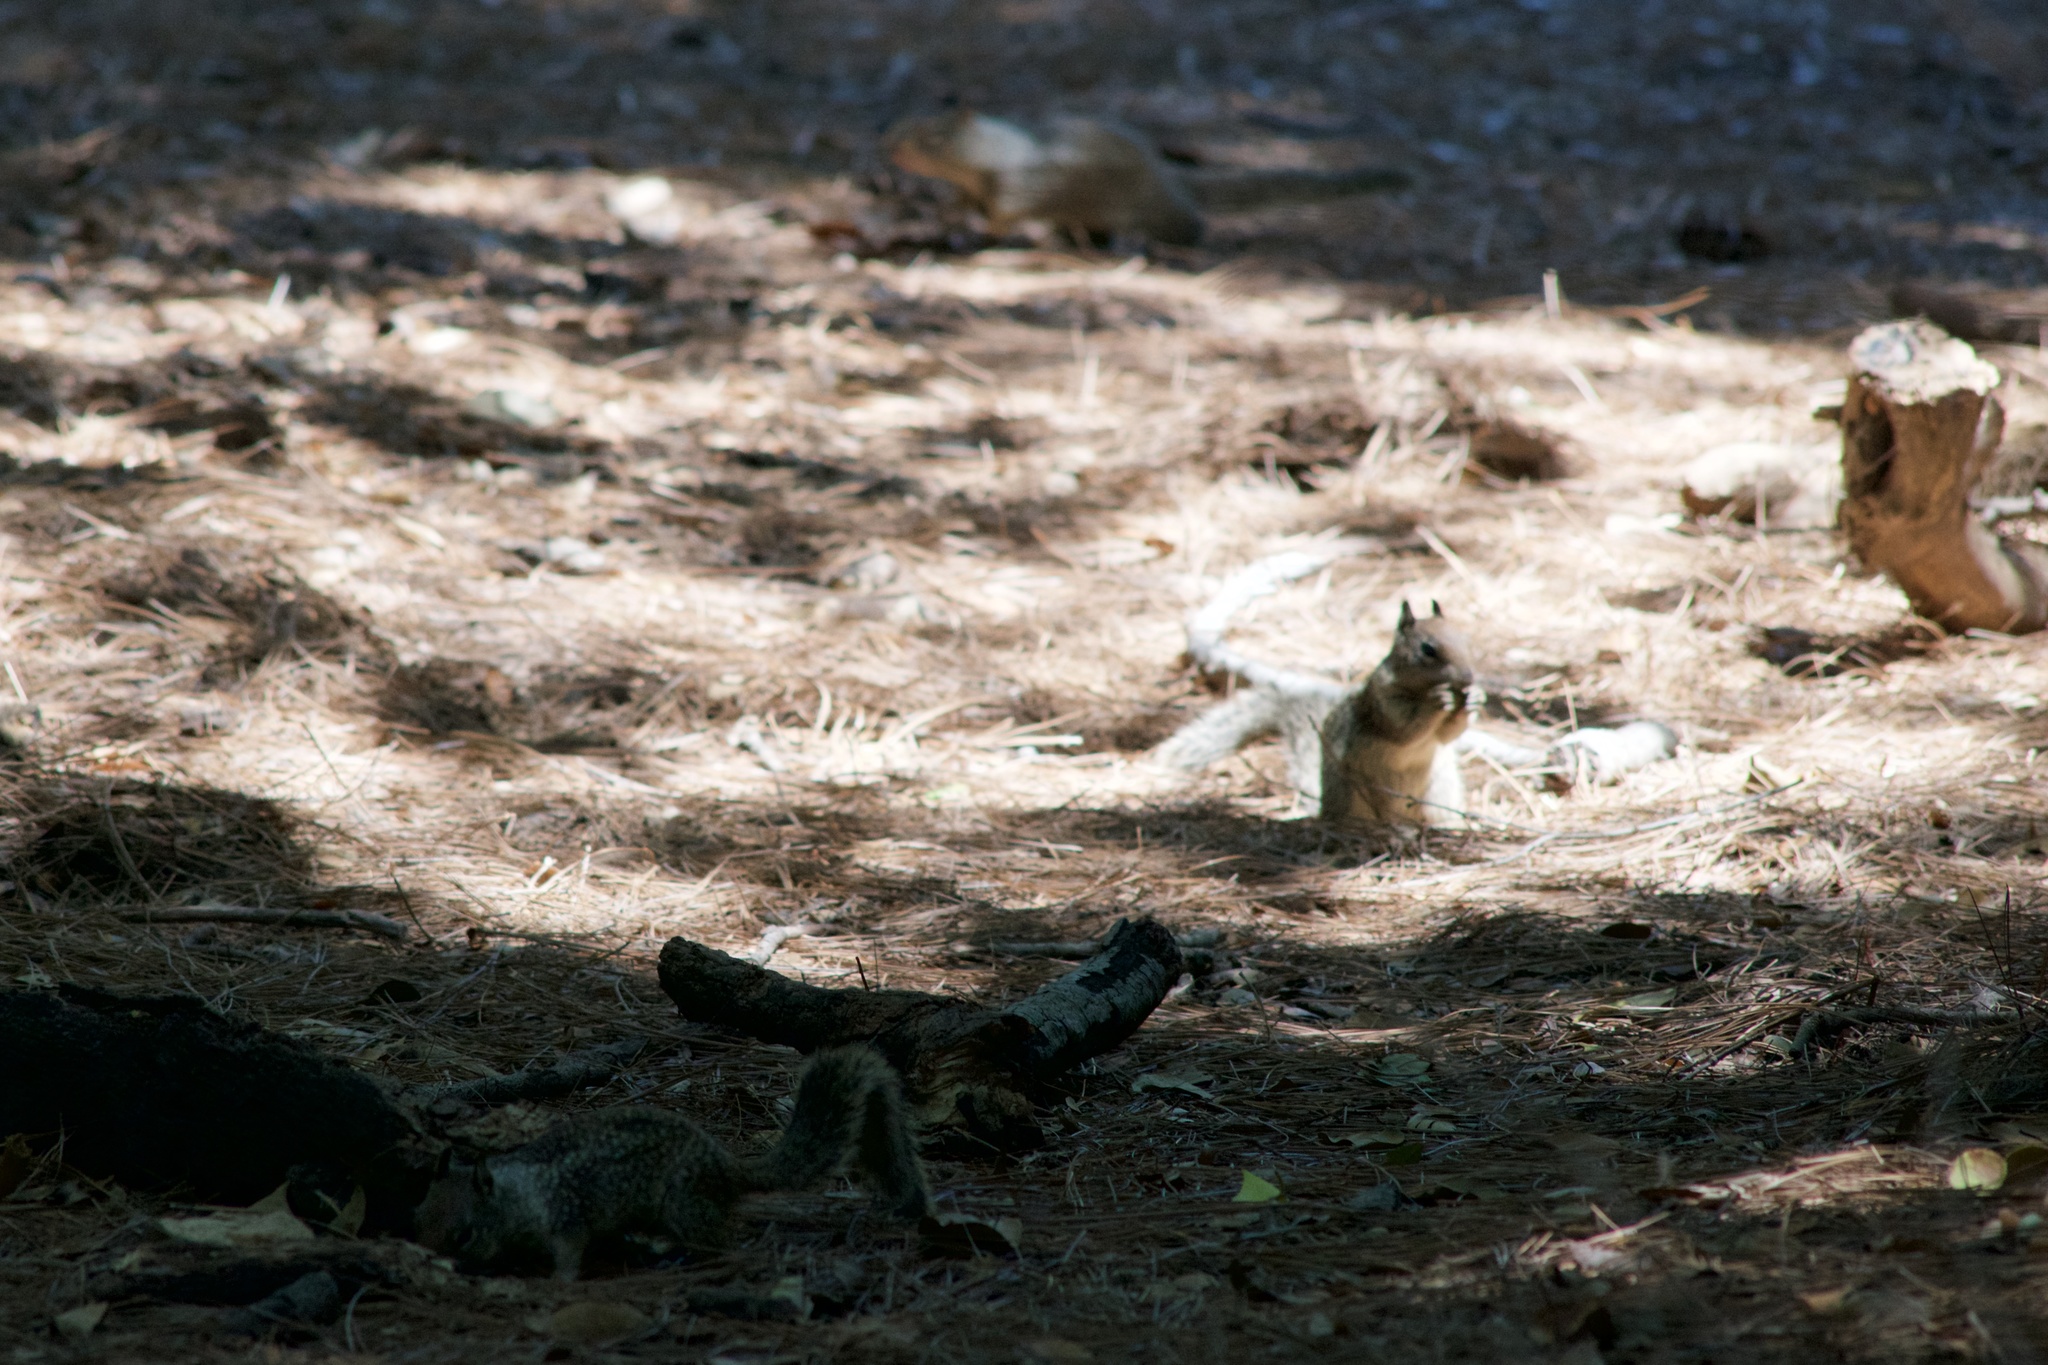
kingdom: Animalia
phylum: Chordata
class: Mammalia
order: Rodentia
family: Sciuridae
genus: Otospermophilus
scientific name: Otospermophilus beecheyi
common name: California ground squirrel
